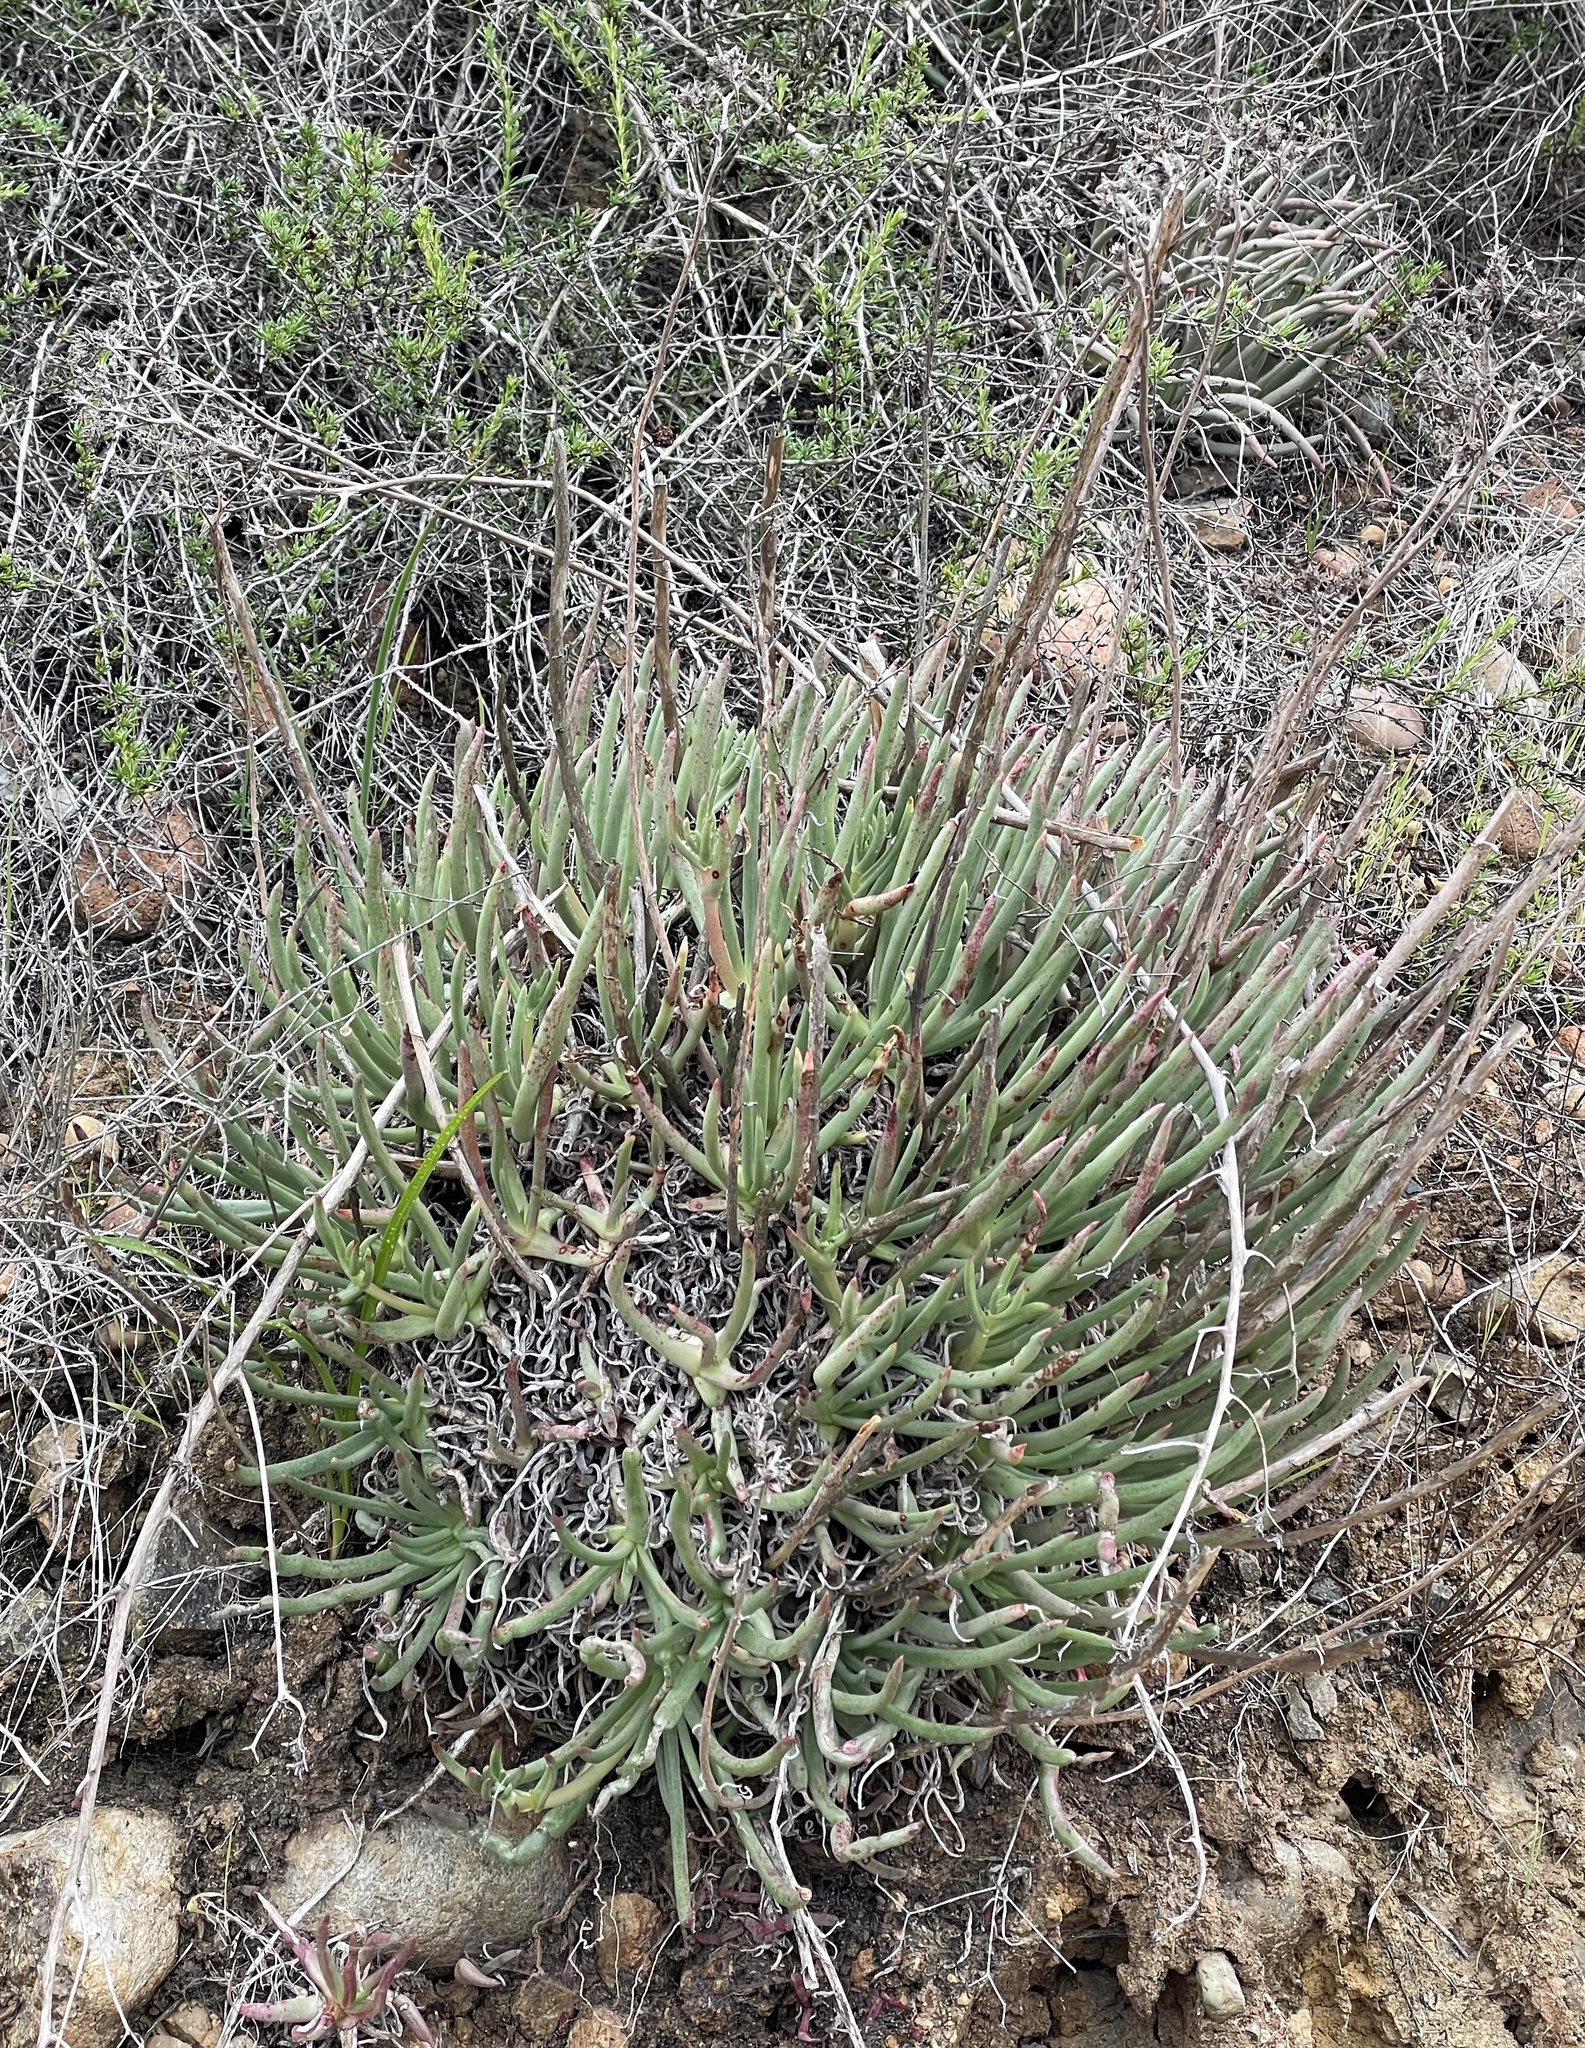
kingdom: Plantae
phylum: Tracheophyta
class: Magnoliopsida
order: Saxifragales
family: Crassulaceae
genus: Dudleya
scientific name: Dudleya edulis
